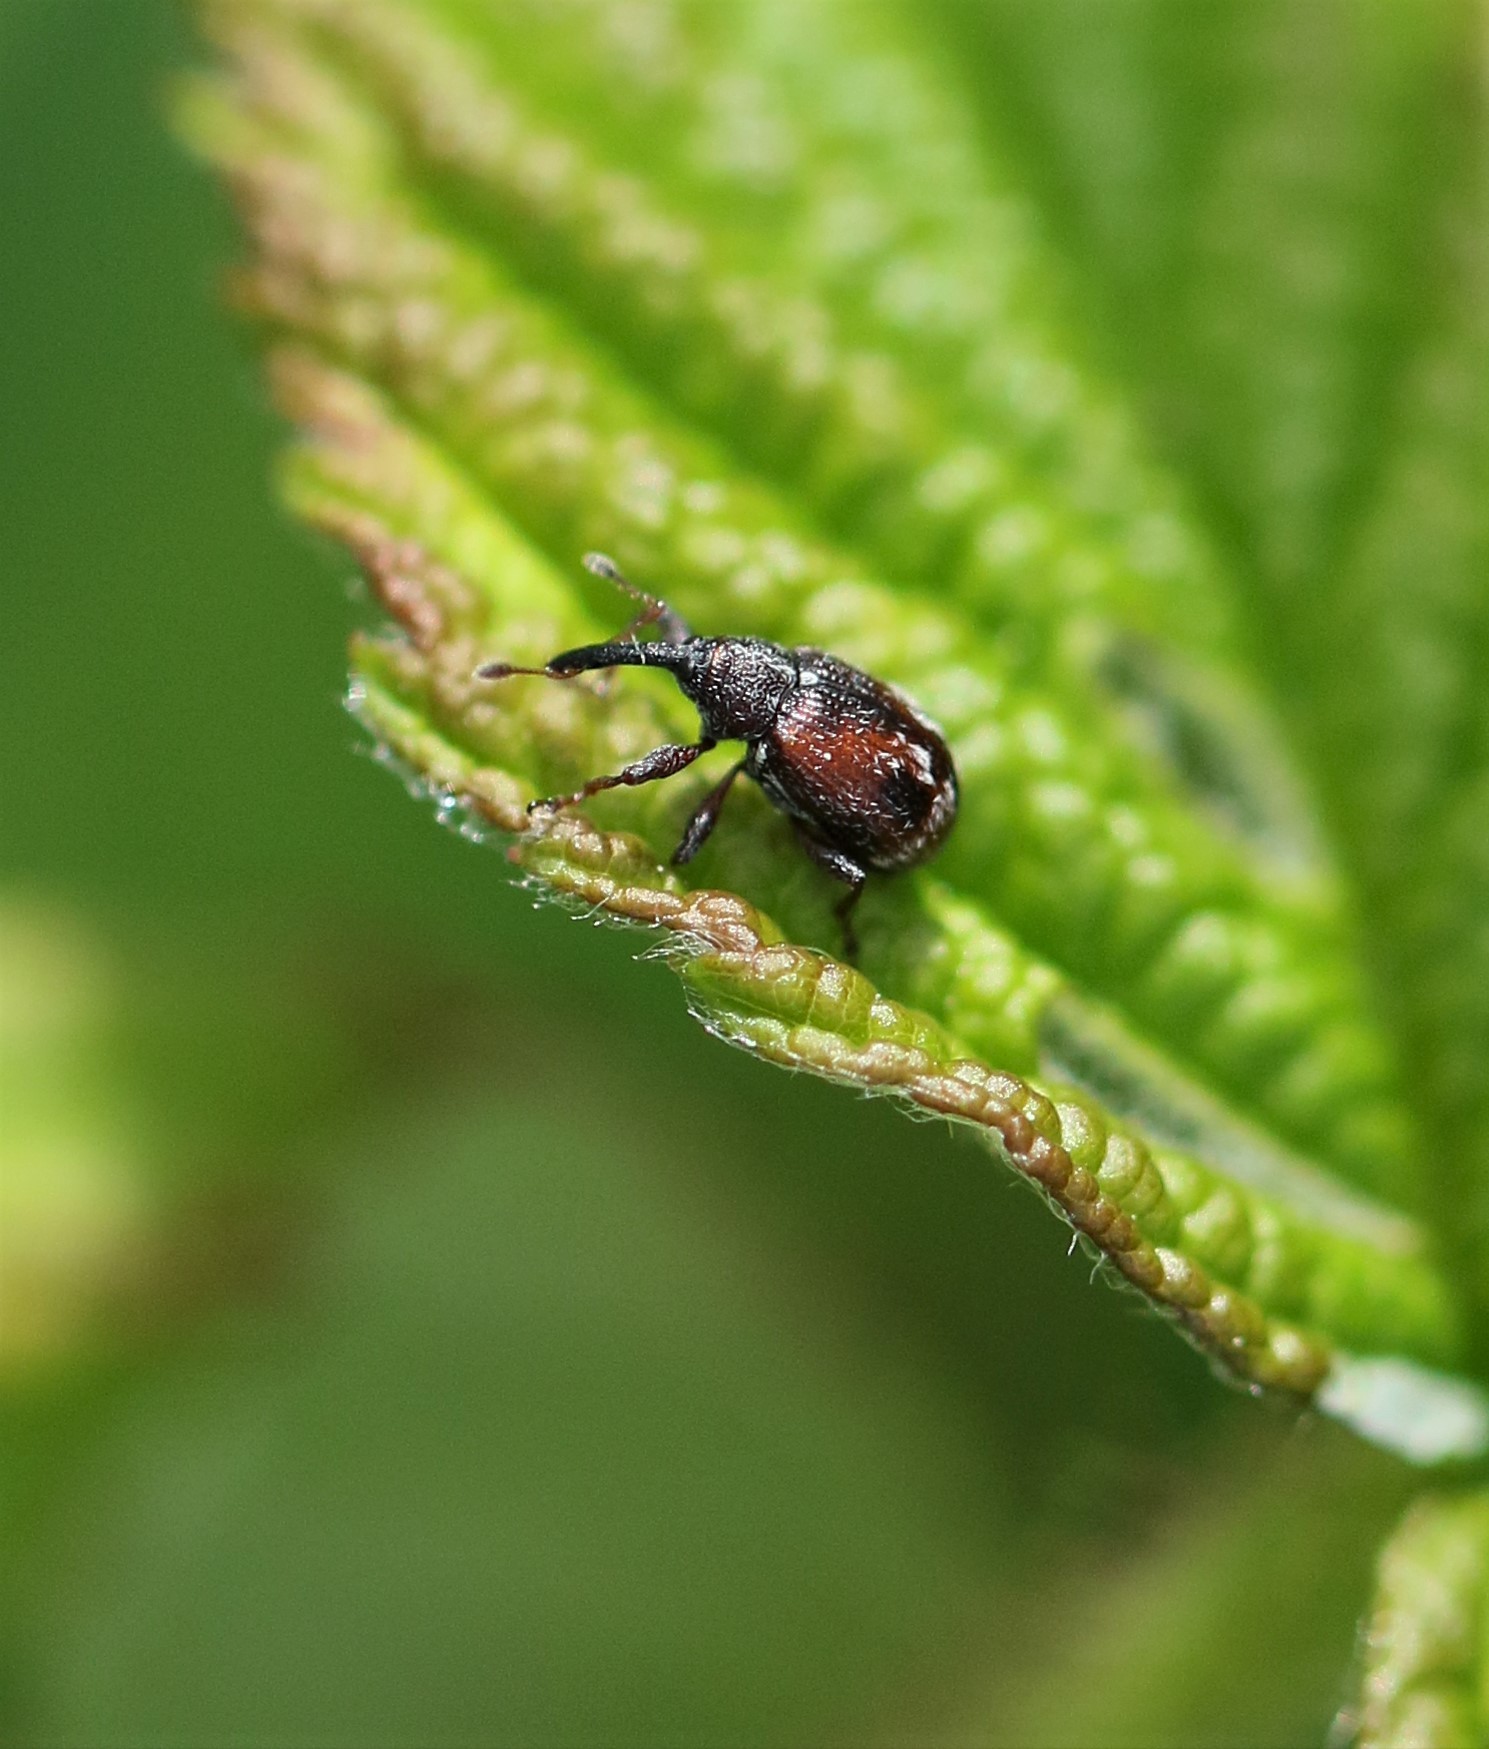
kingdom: Animalia
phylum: Arthropoda
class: Insecta
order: Coleoptera
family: Curculionidae
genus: Anthonomus
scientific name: Anthonomus signatus
